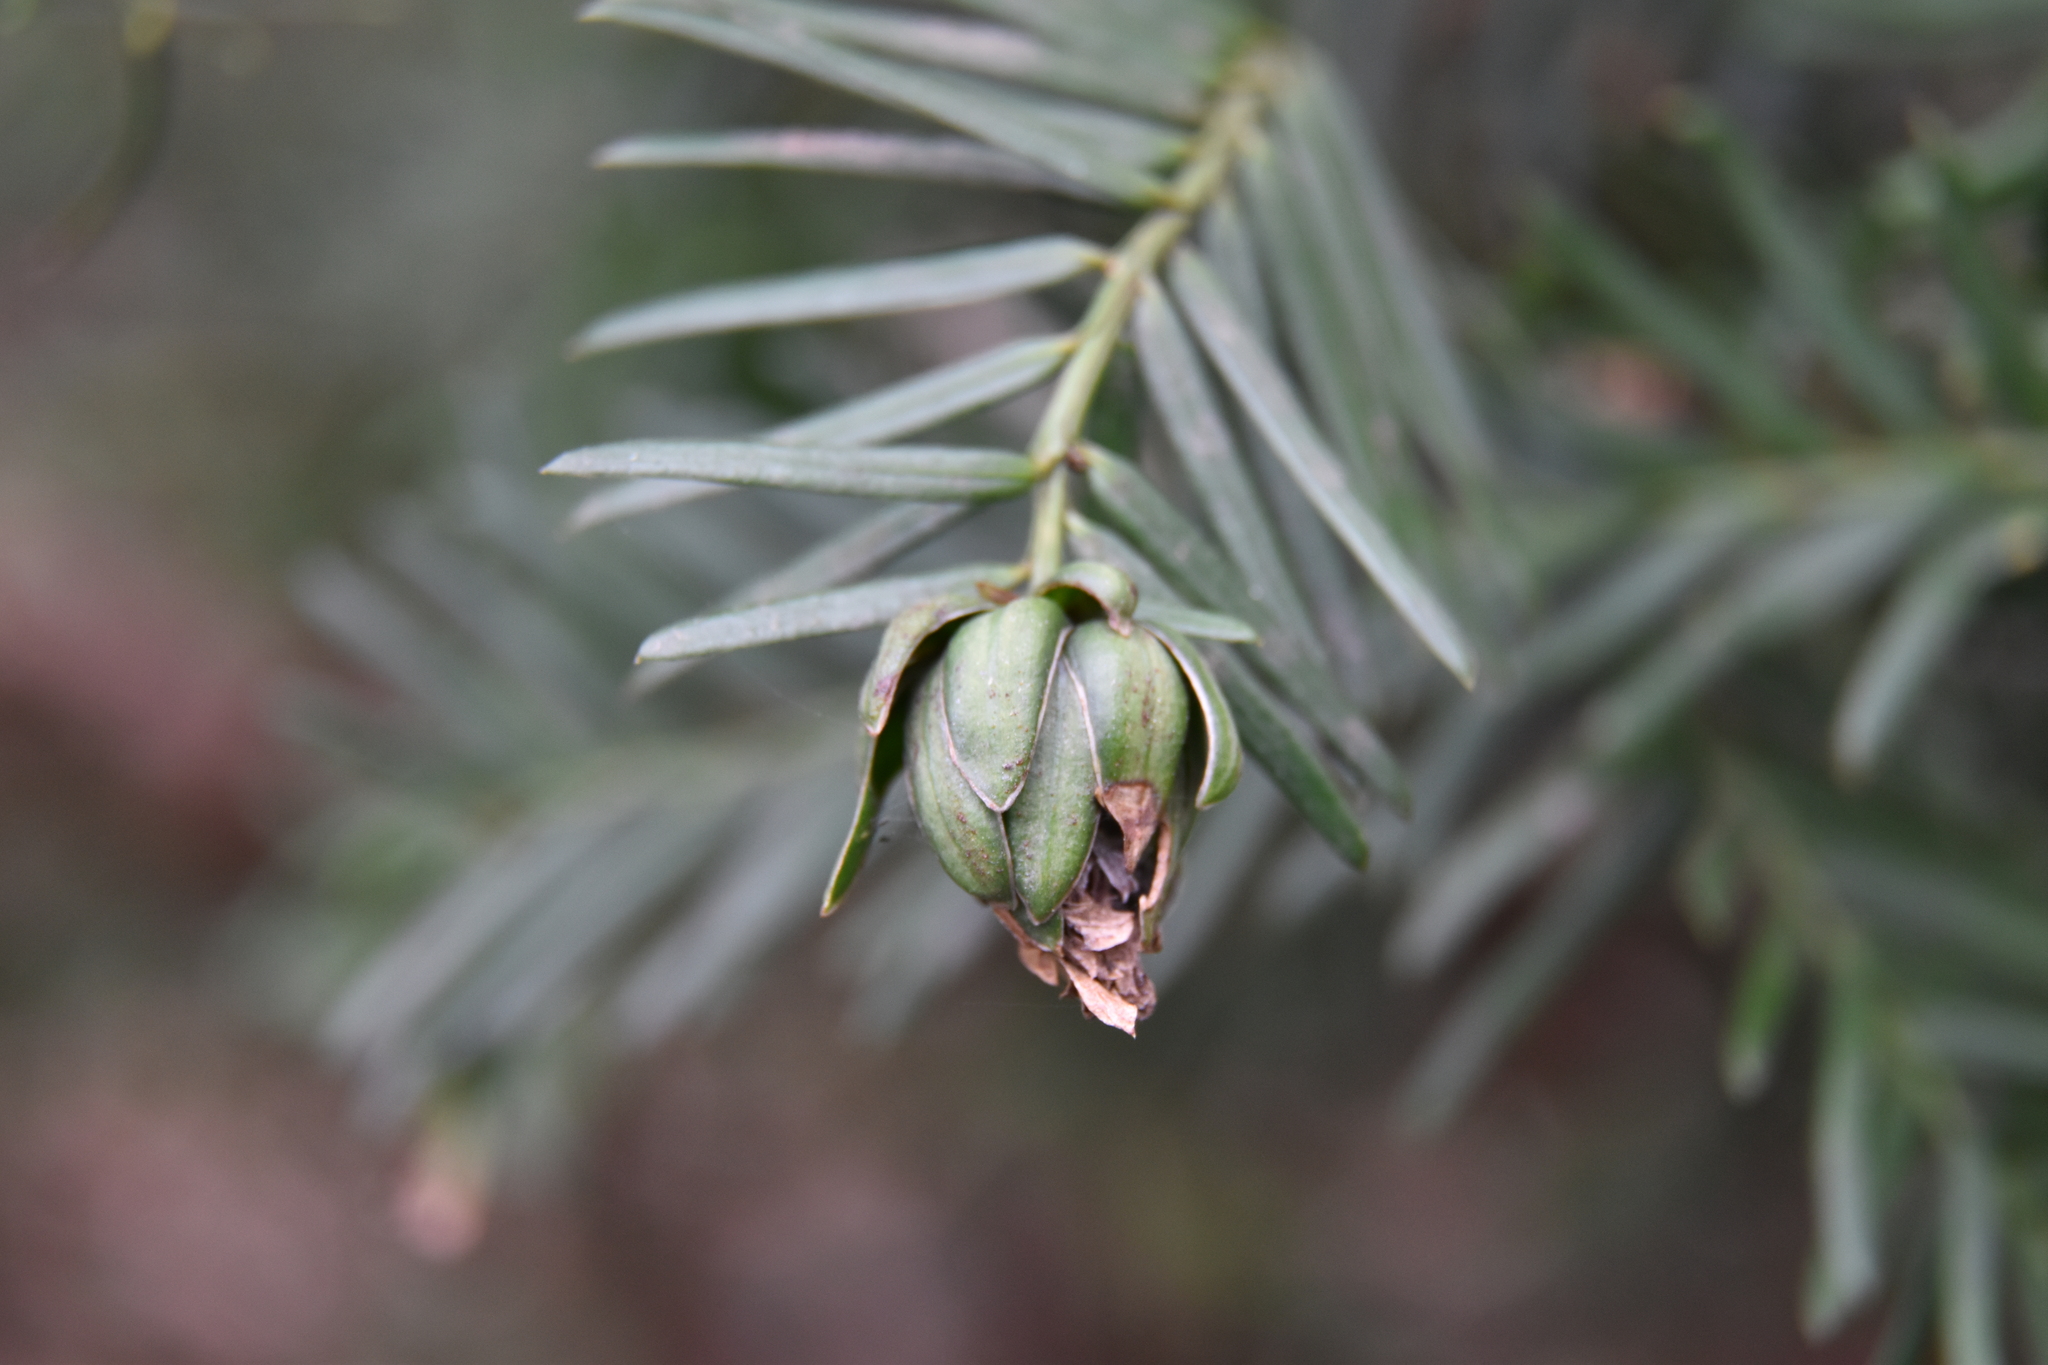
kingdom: Animalia
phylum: Arthropoda
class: Insecta
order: Diptera
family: Cecidomyiidae
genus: Taxomyia
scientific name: Taxomyia taxi
